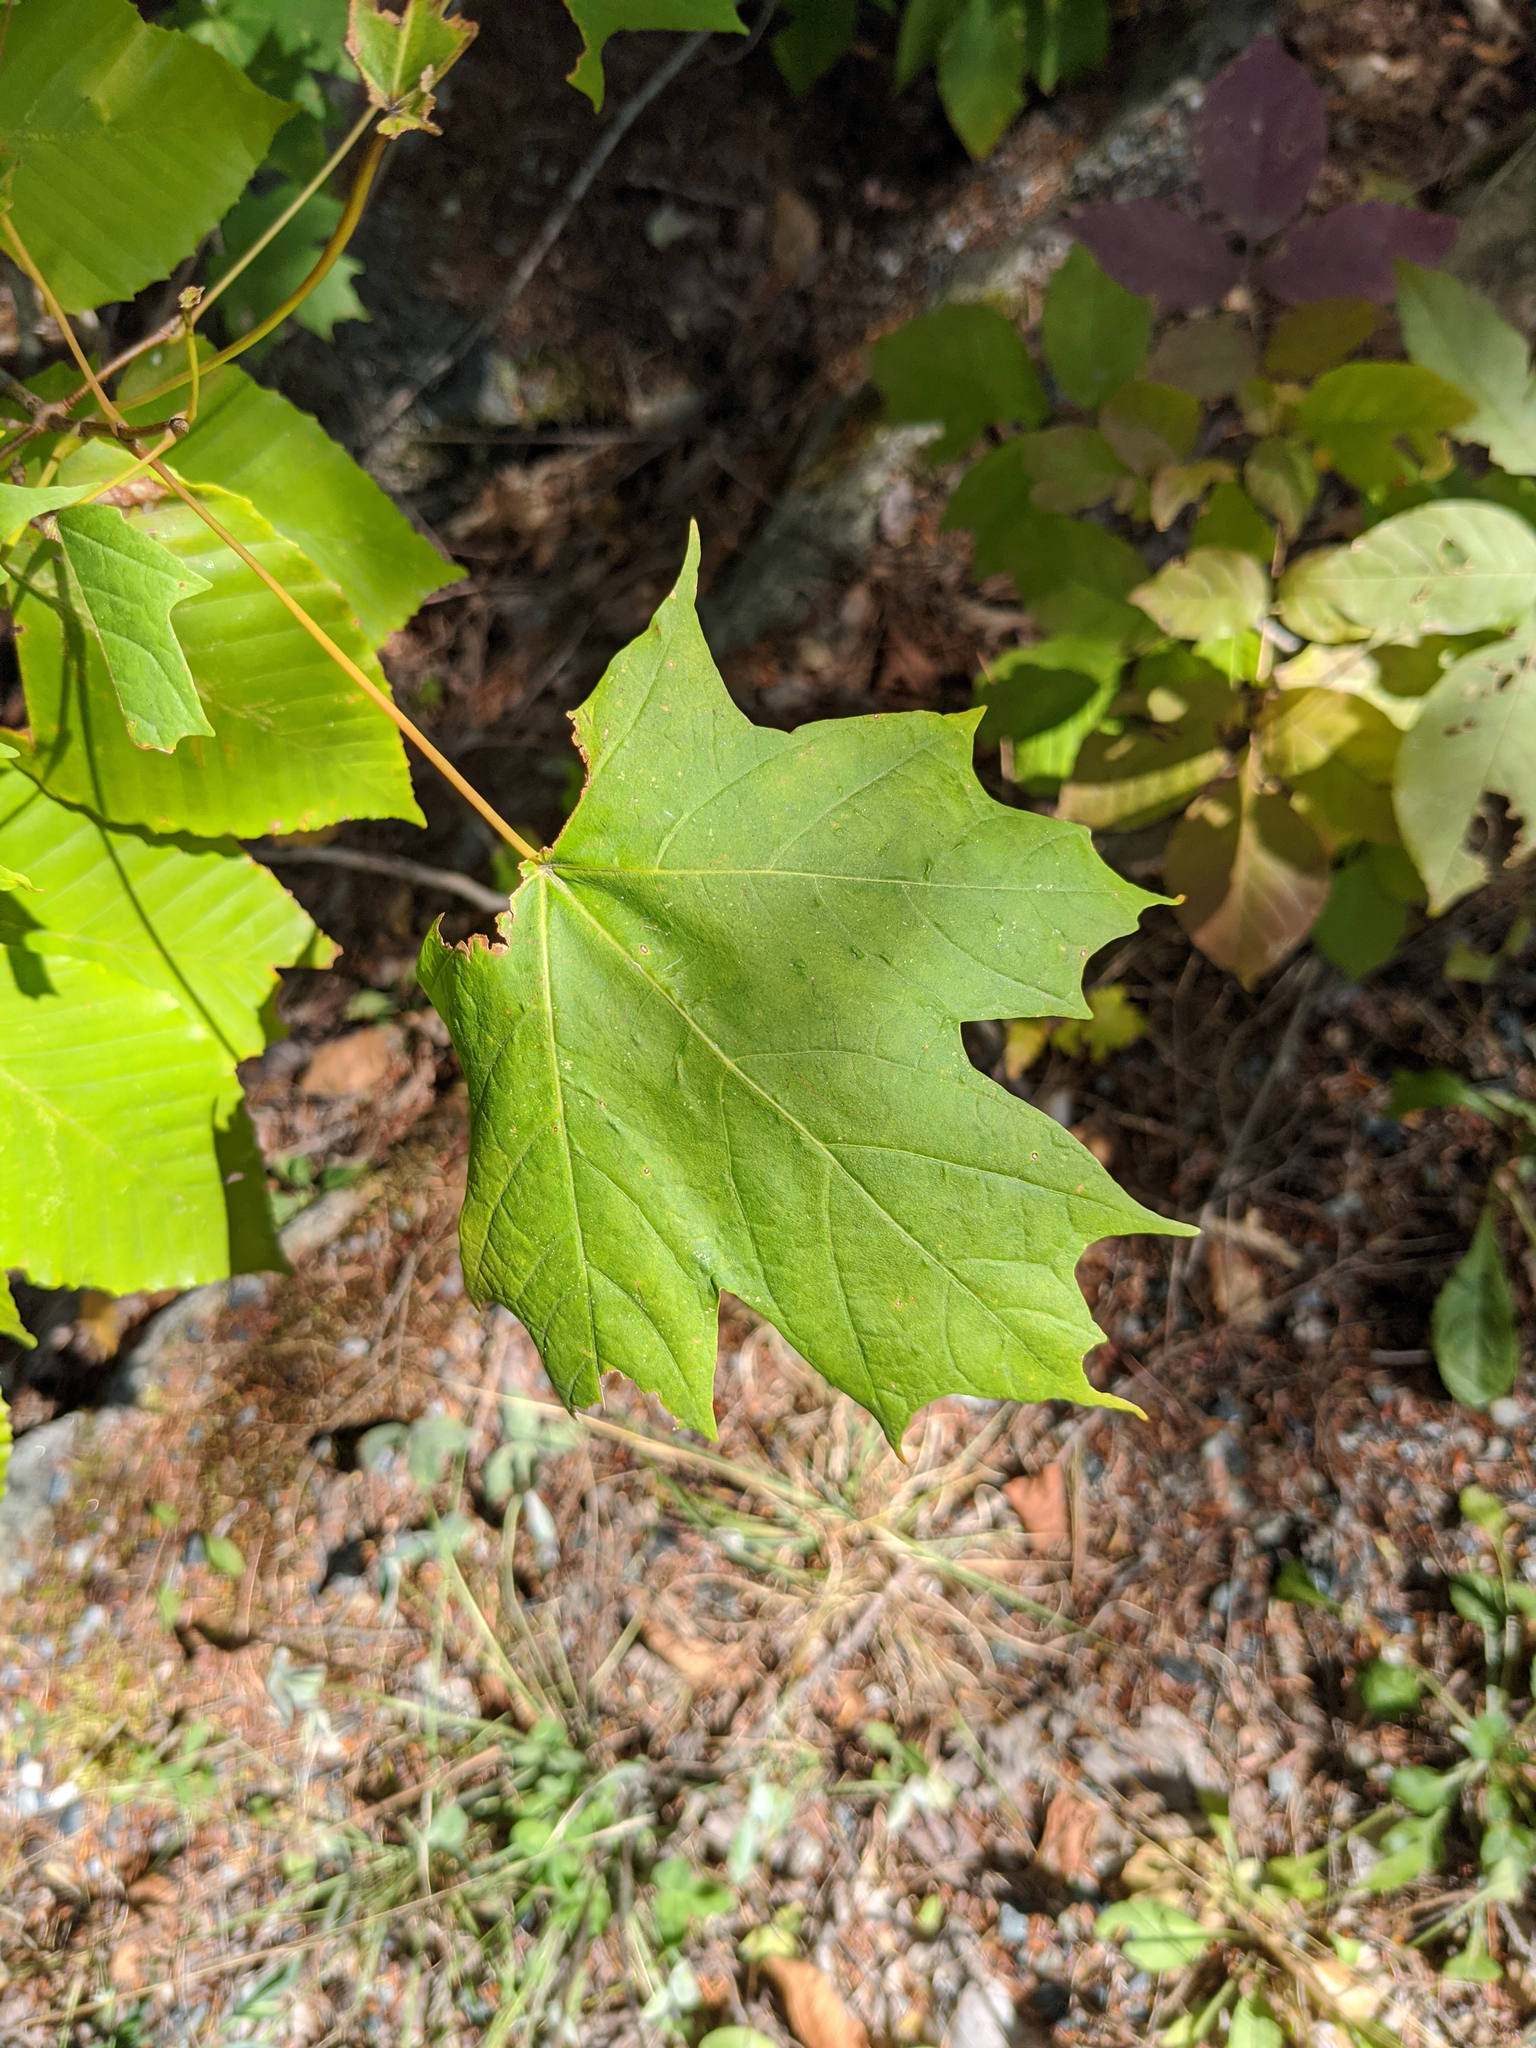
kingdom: Plantae
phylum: Tracheophyta
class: Magnoliopsida
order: Sapindales
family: Sapindaceae
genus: Acer
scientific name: Acer saccharum
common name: Sugar maple
